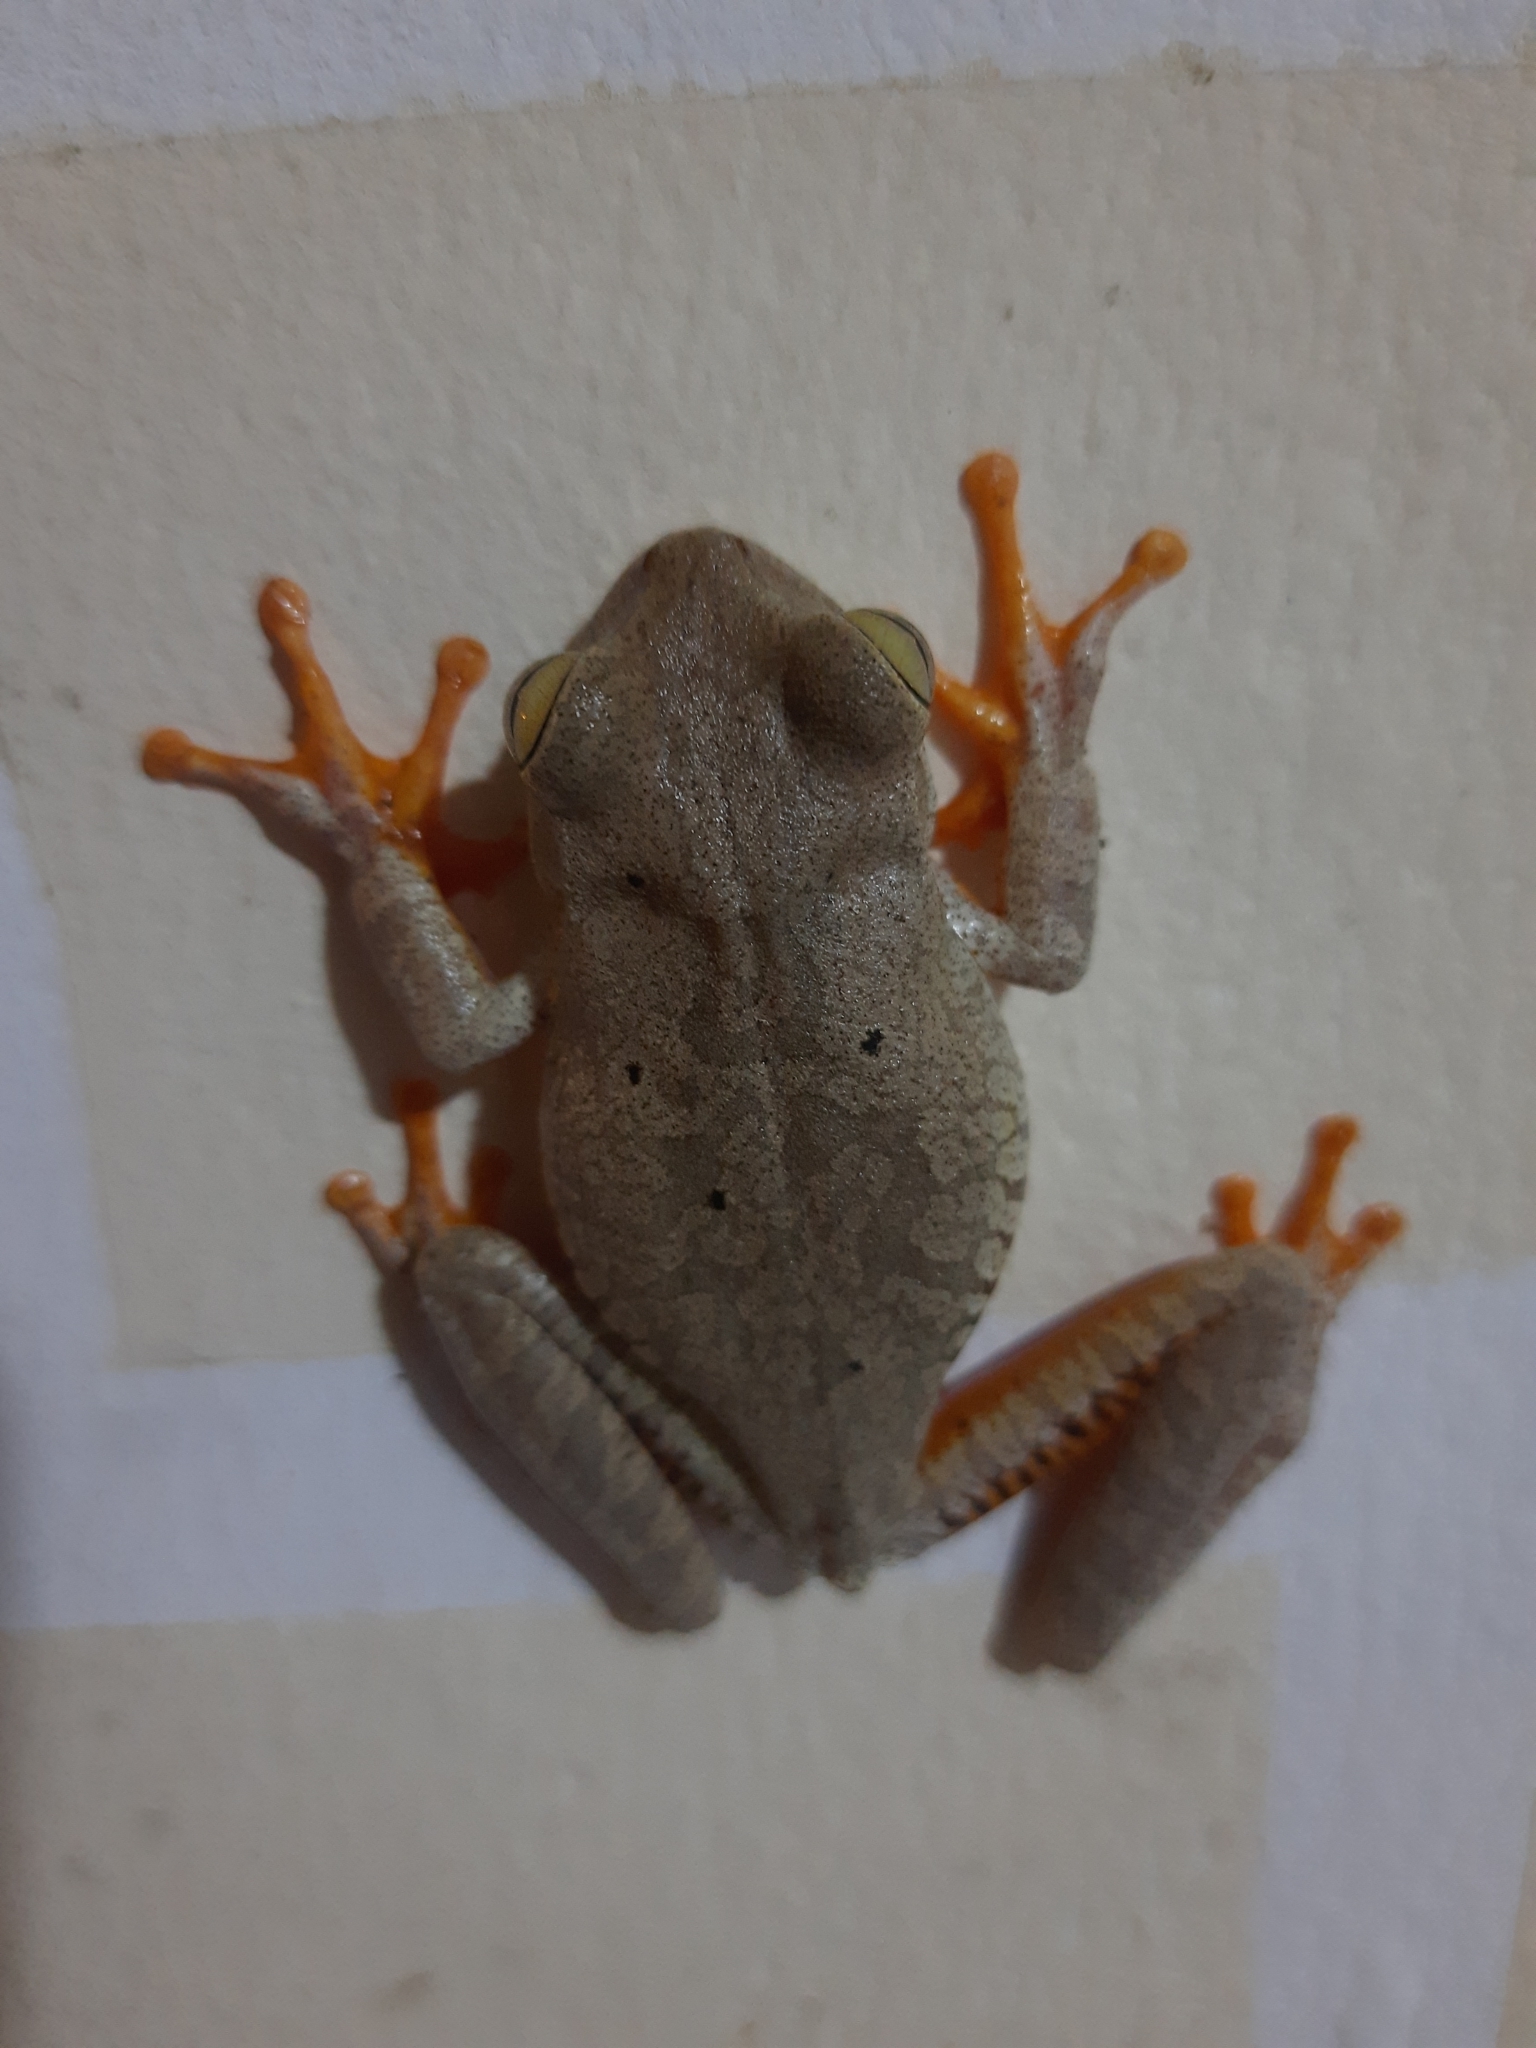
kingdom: Animalia
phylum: Chordata
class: Amphibia
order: Anura
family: Hylidae
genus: Boana
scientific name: Boana crepitans
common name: Emerald-eyed treefrog
